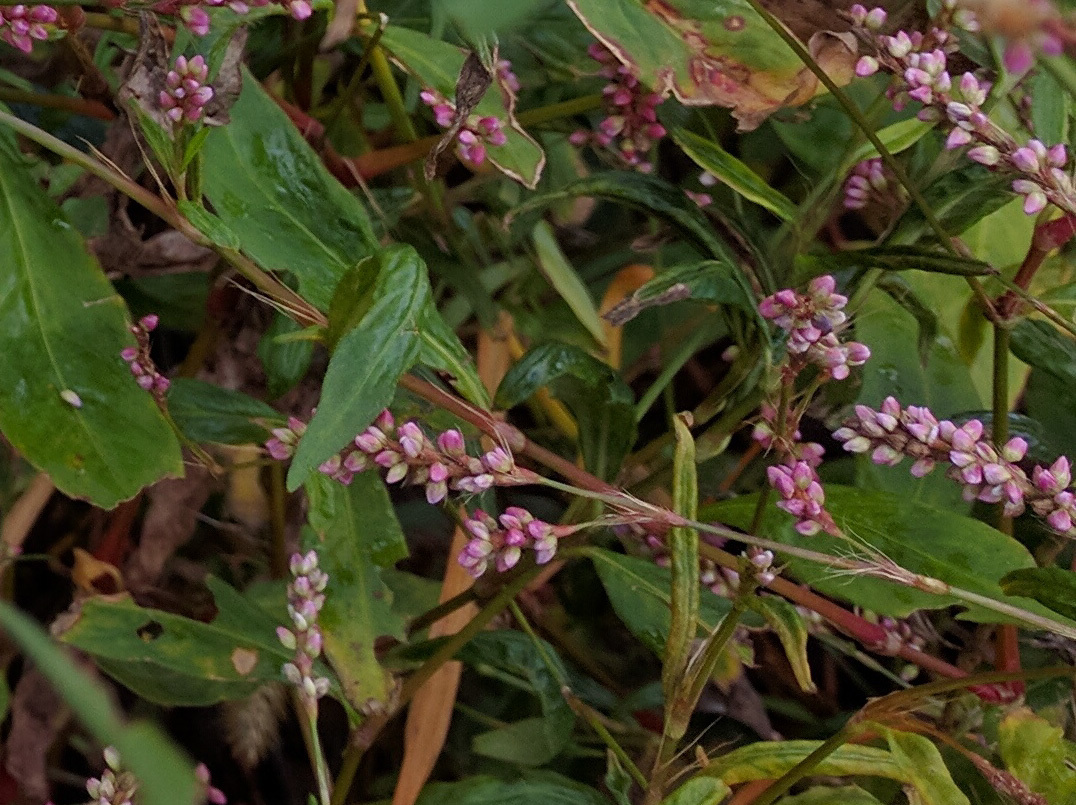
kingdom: Plantae
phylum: Tracheophyta
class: Magnoliopsida
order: Caryophyllales
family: Polygonaceae
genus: Persicaria
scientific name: Persicaria longiseta
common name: Bristly lady's-thumb
